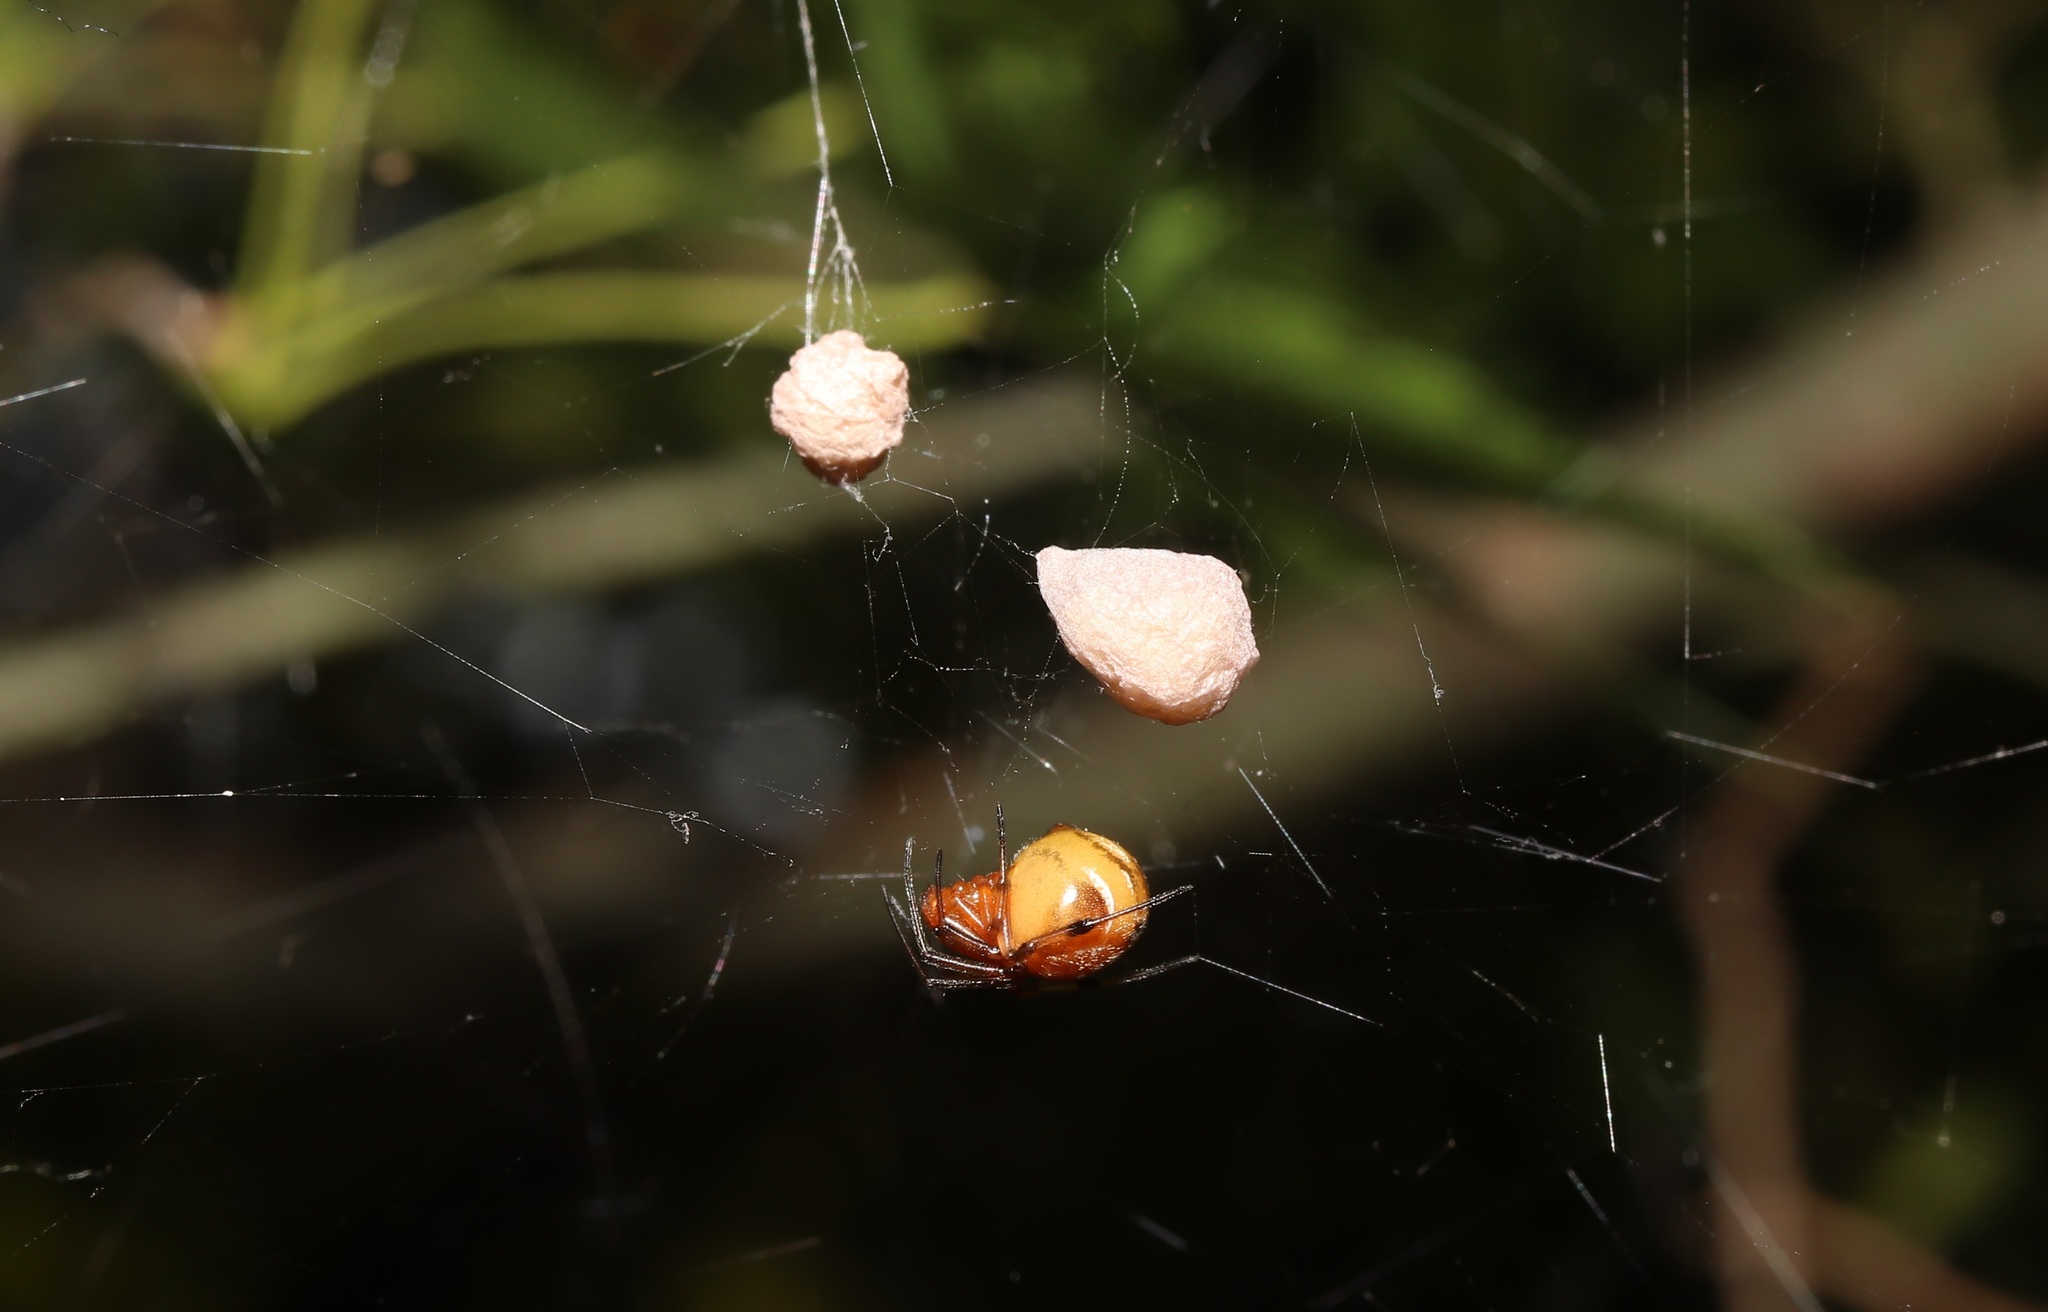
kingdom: Animalia
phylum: Arthropoda
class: Arachnida
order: Araneae
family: Theridiidae
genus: Nihonhimea
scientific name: Nihonhimea japonica
